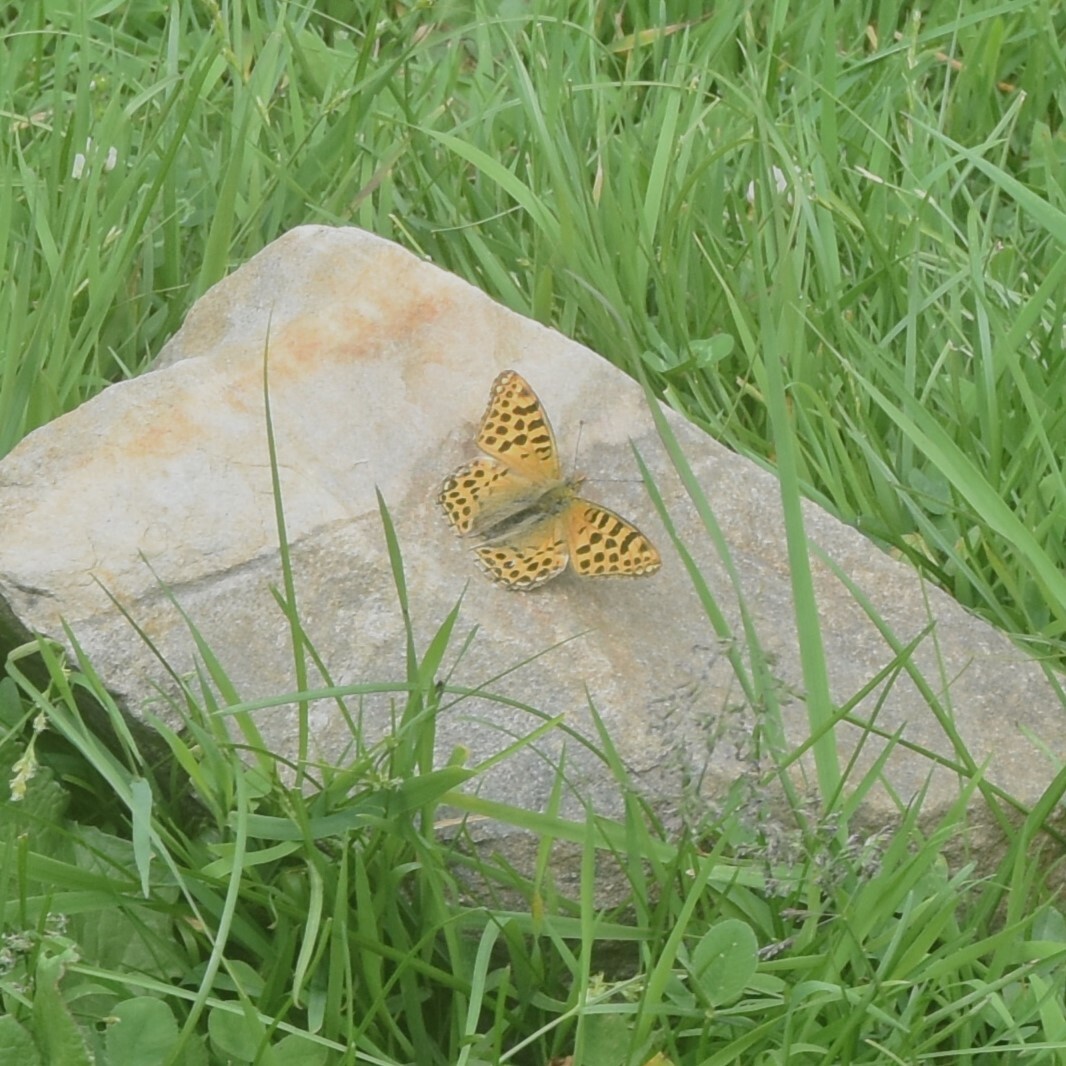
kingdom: Animalia
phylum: Arthropoda
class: Insecta
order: Lepidoptera
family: Nymphalidae
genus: Issoria
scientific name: Issoria
